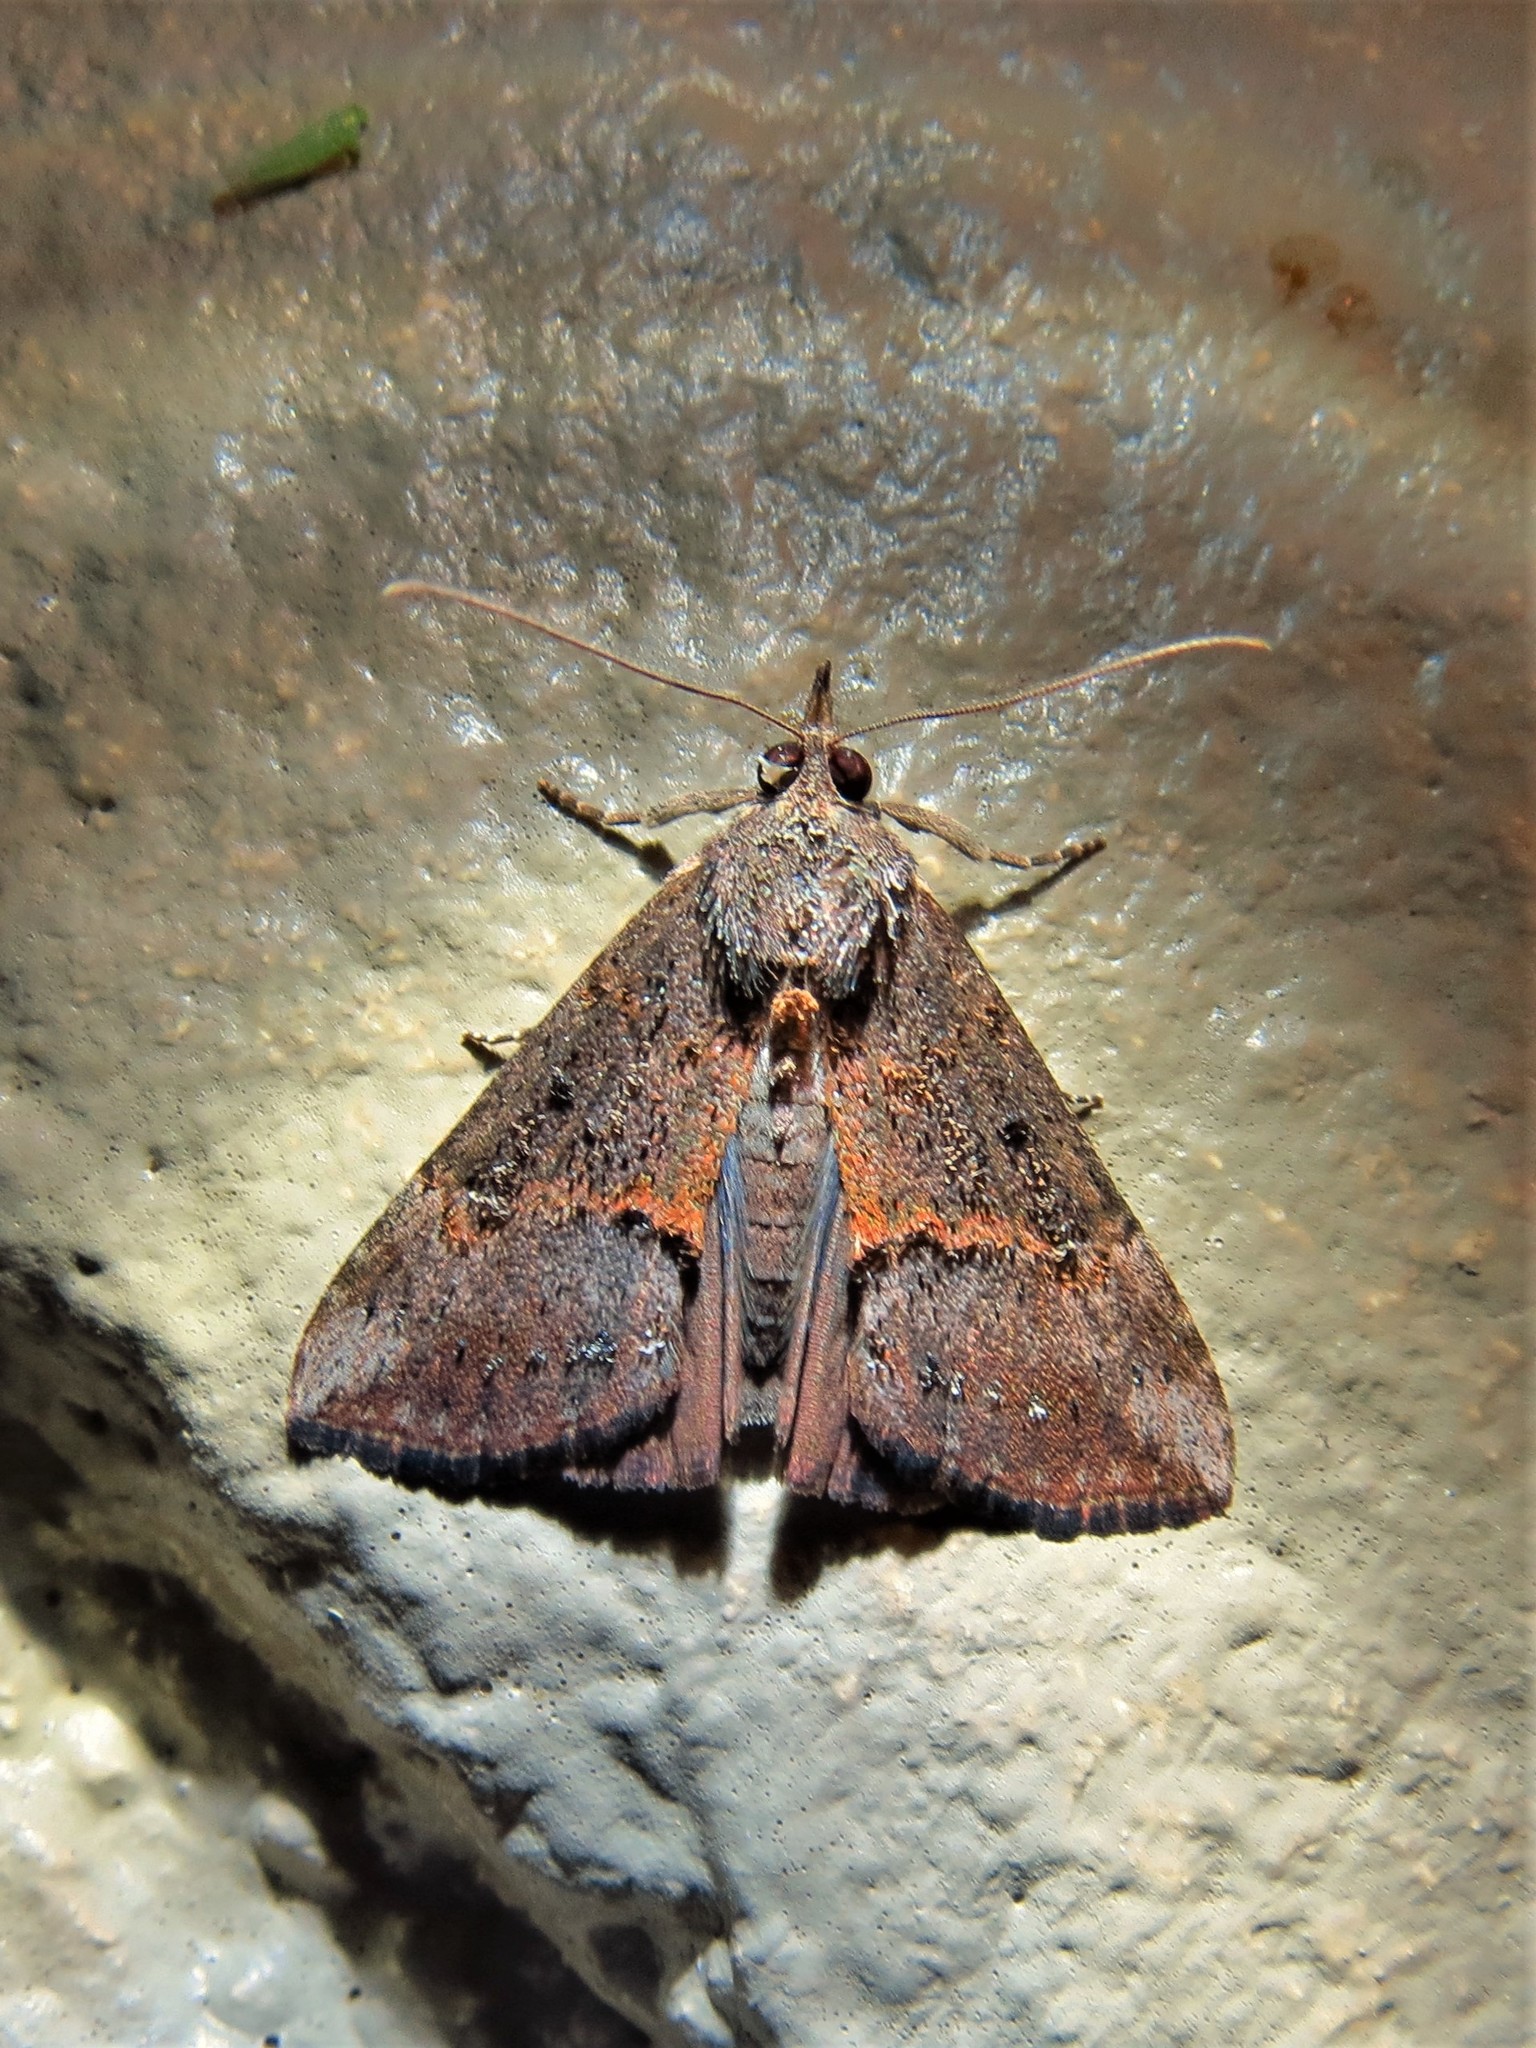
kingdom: Animalia
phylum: Arthropoda
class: Insecta
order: Lepidoptera
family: Erebidae
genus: Hypena
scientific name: Hypena scabra
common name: Green cloverworm
